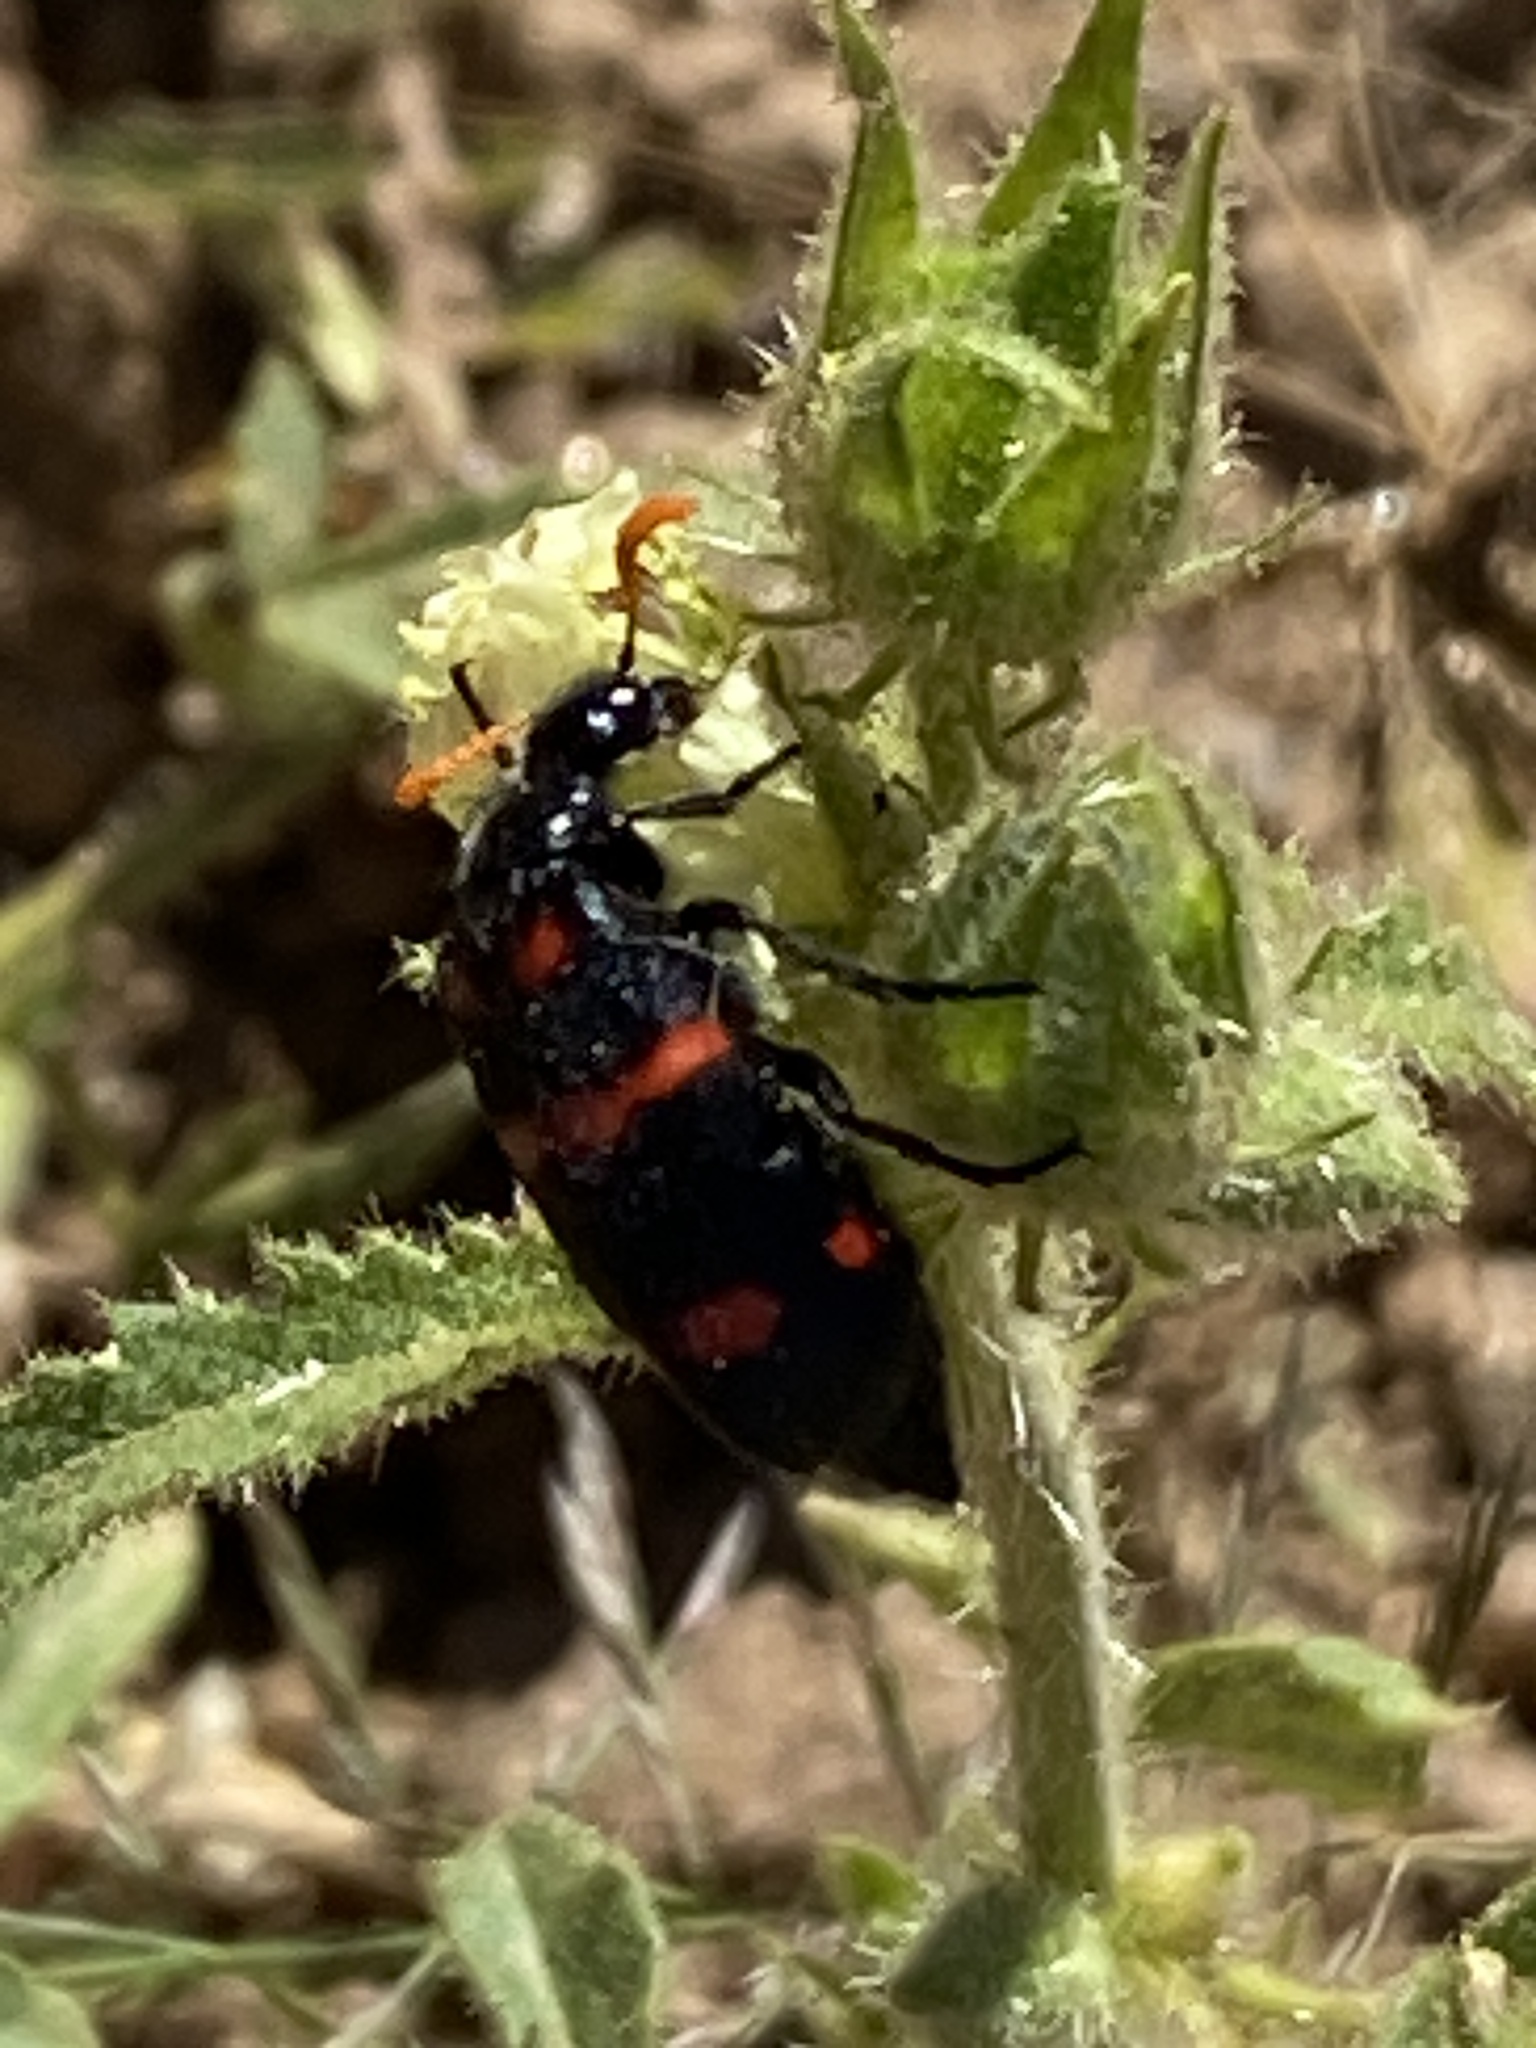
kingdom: Animalia
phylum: Arthropoda
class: Insecta
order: Coleoptera
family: Meloidae
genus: Hycleus
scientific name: Hycleus hybridus
